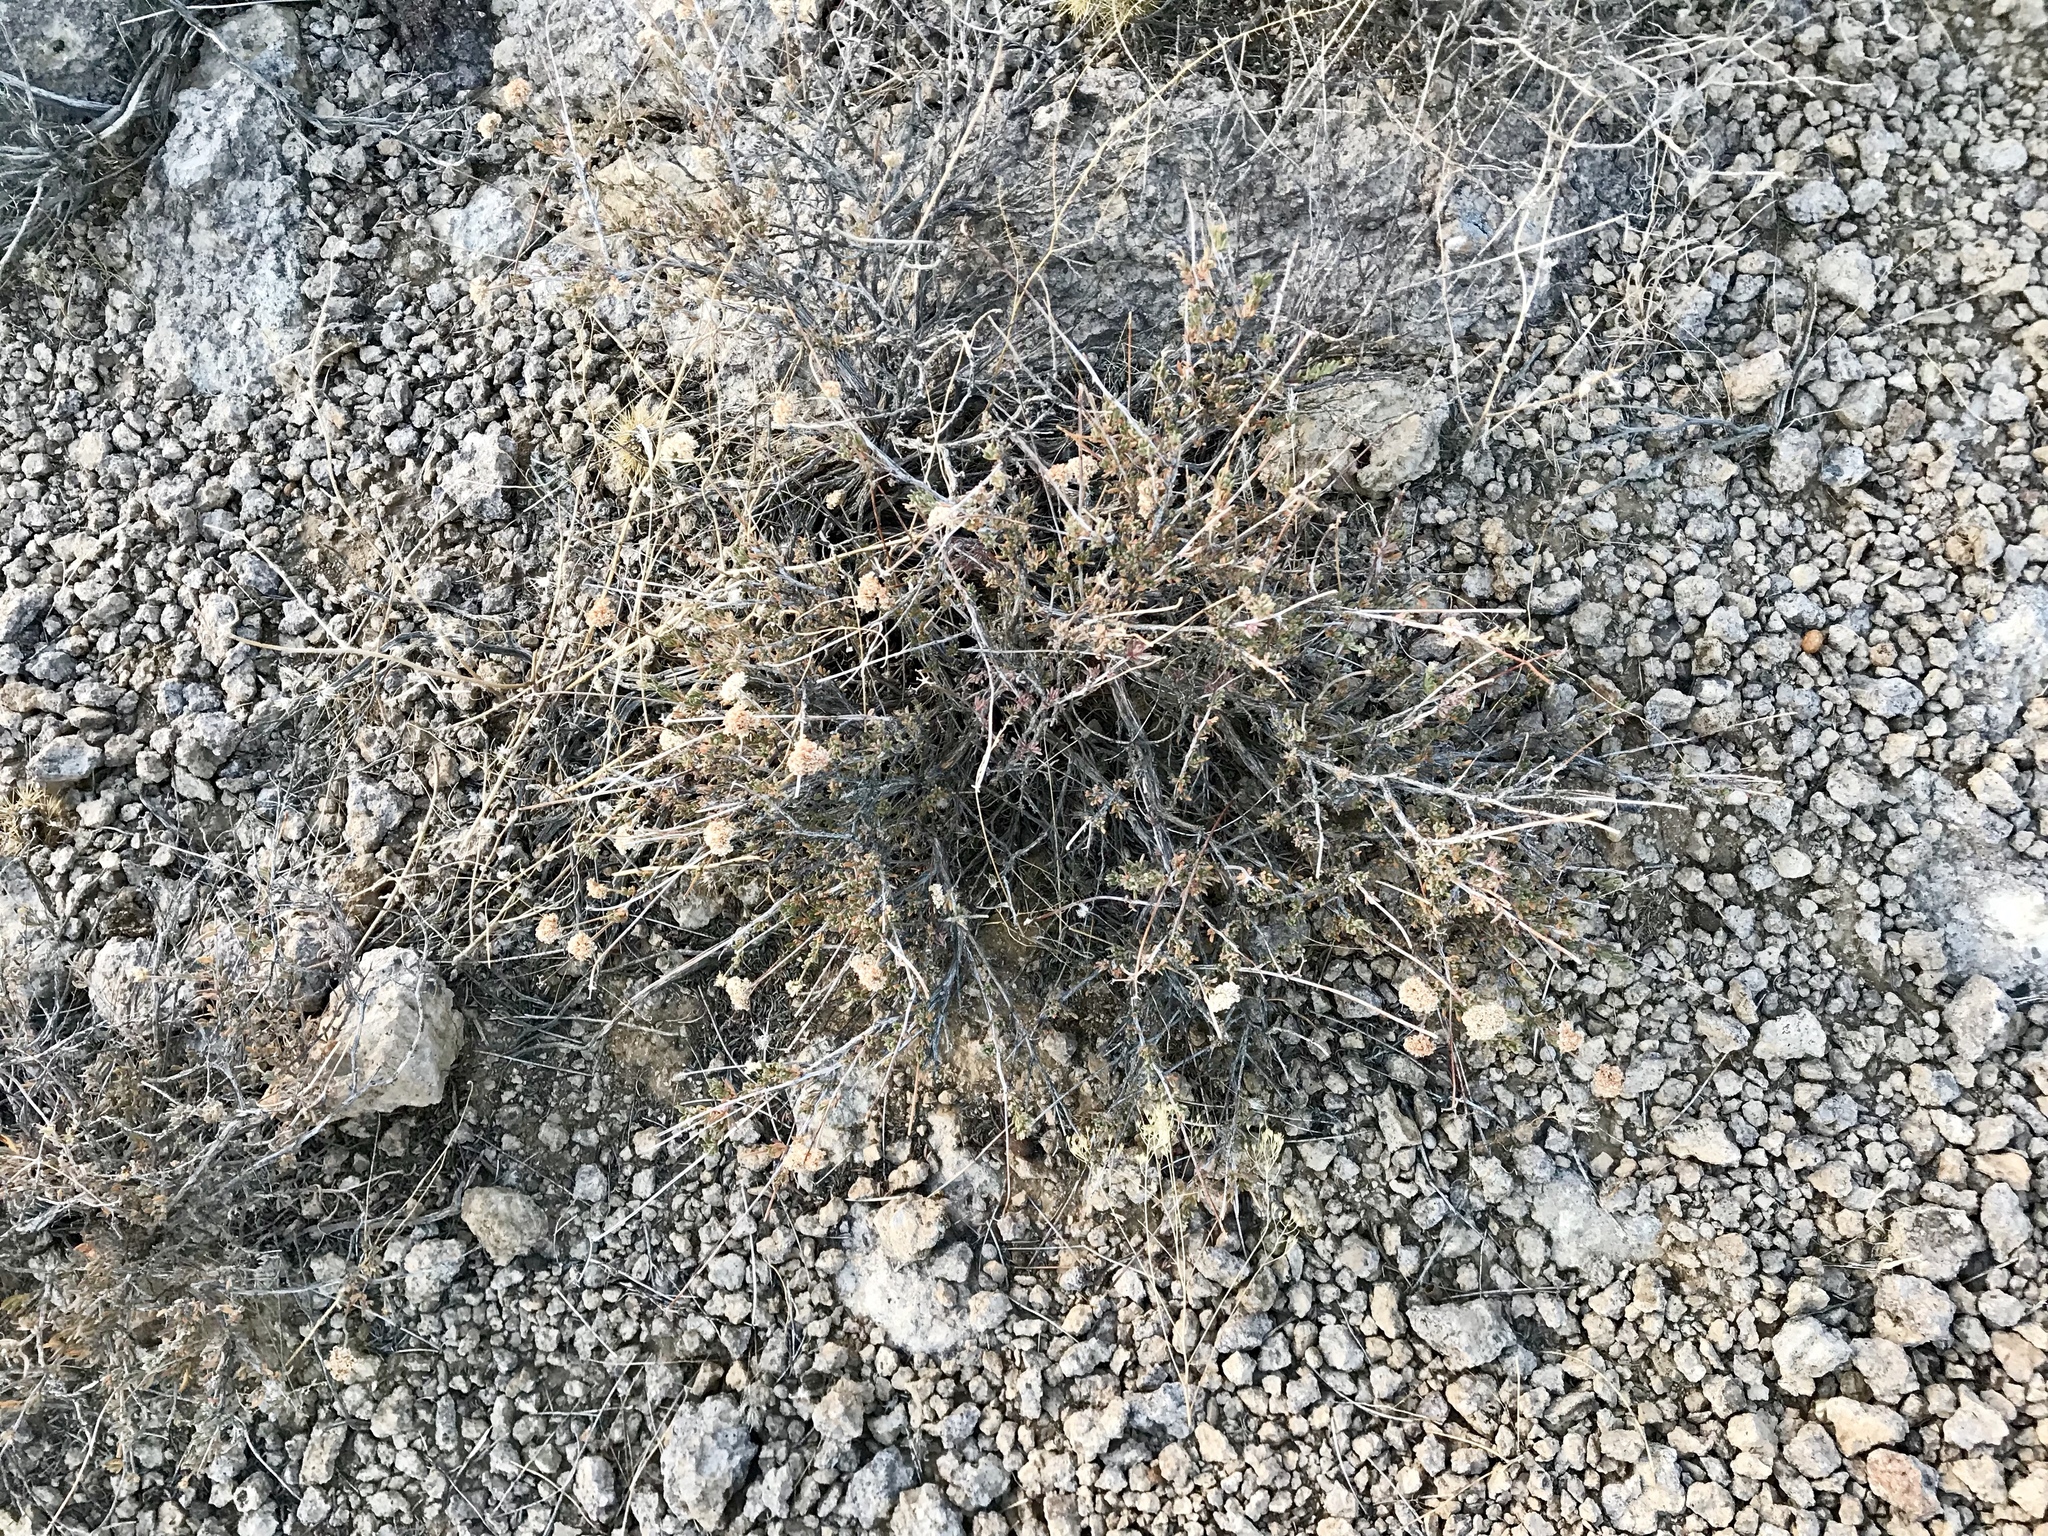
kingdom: Plantae
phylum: Tracheophyta
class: Magnoliopsida
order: Caryophyllales
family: Polygonaceae
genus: Eriogonum
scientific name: Eriogonum fasciculatum
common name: California wild buckwheat
